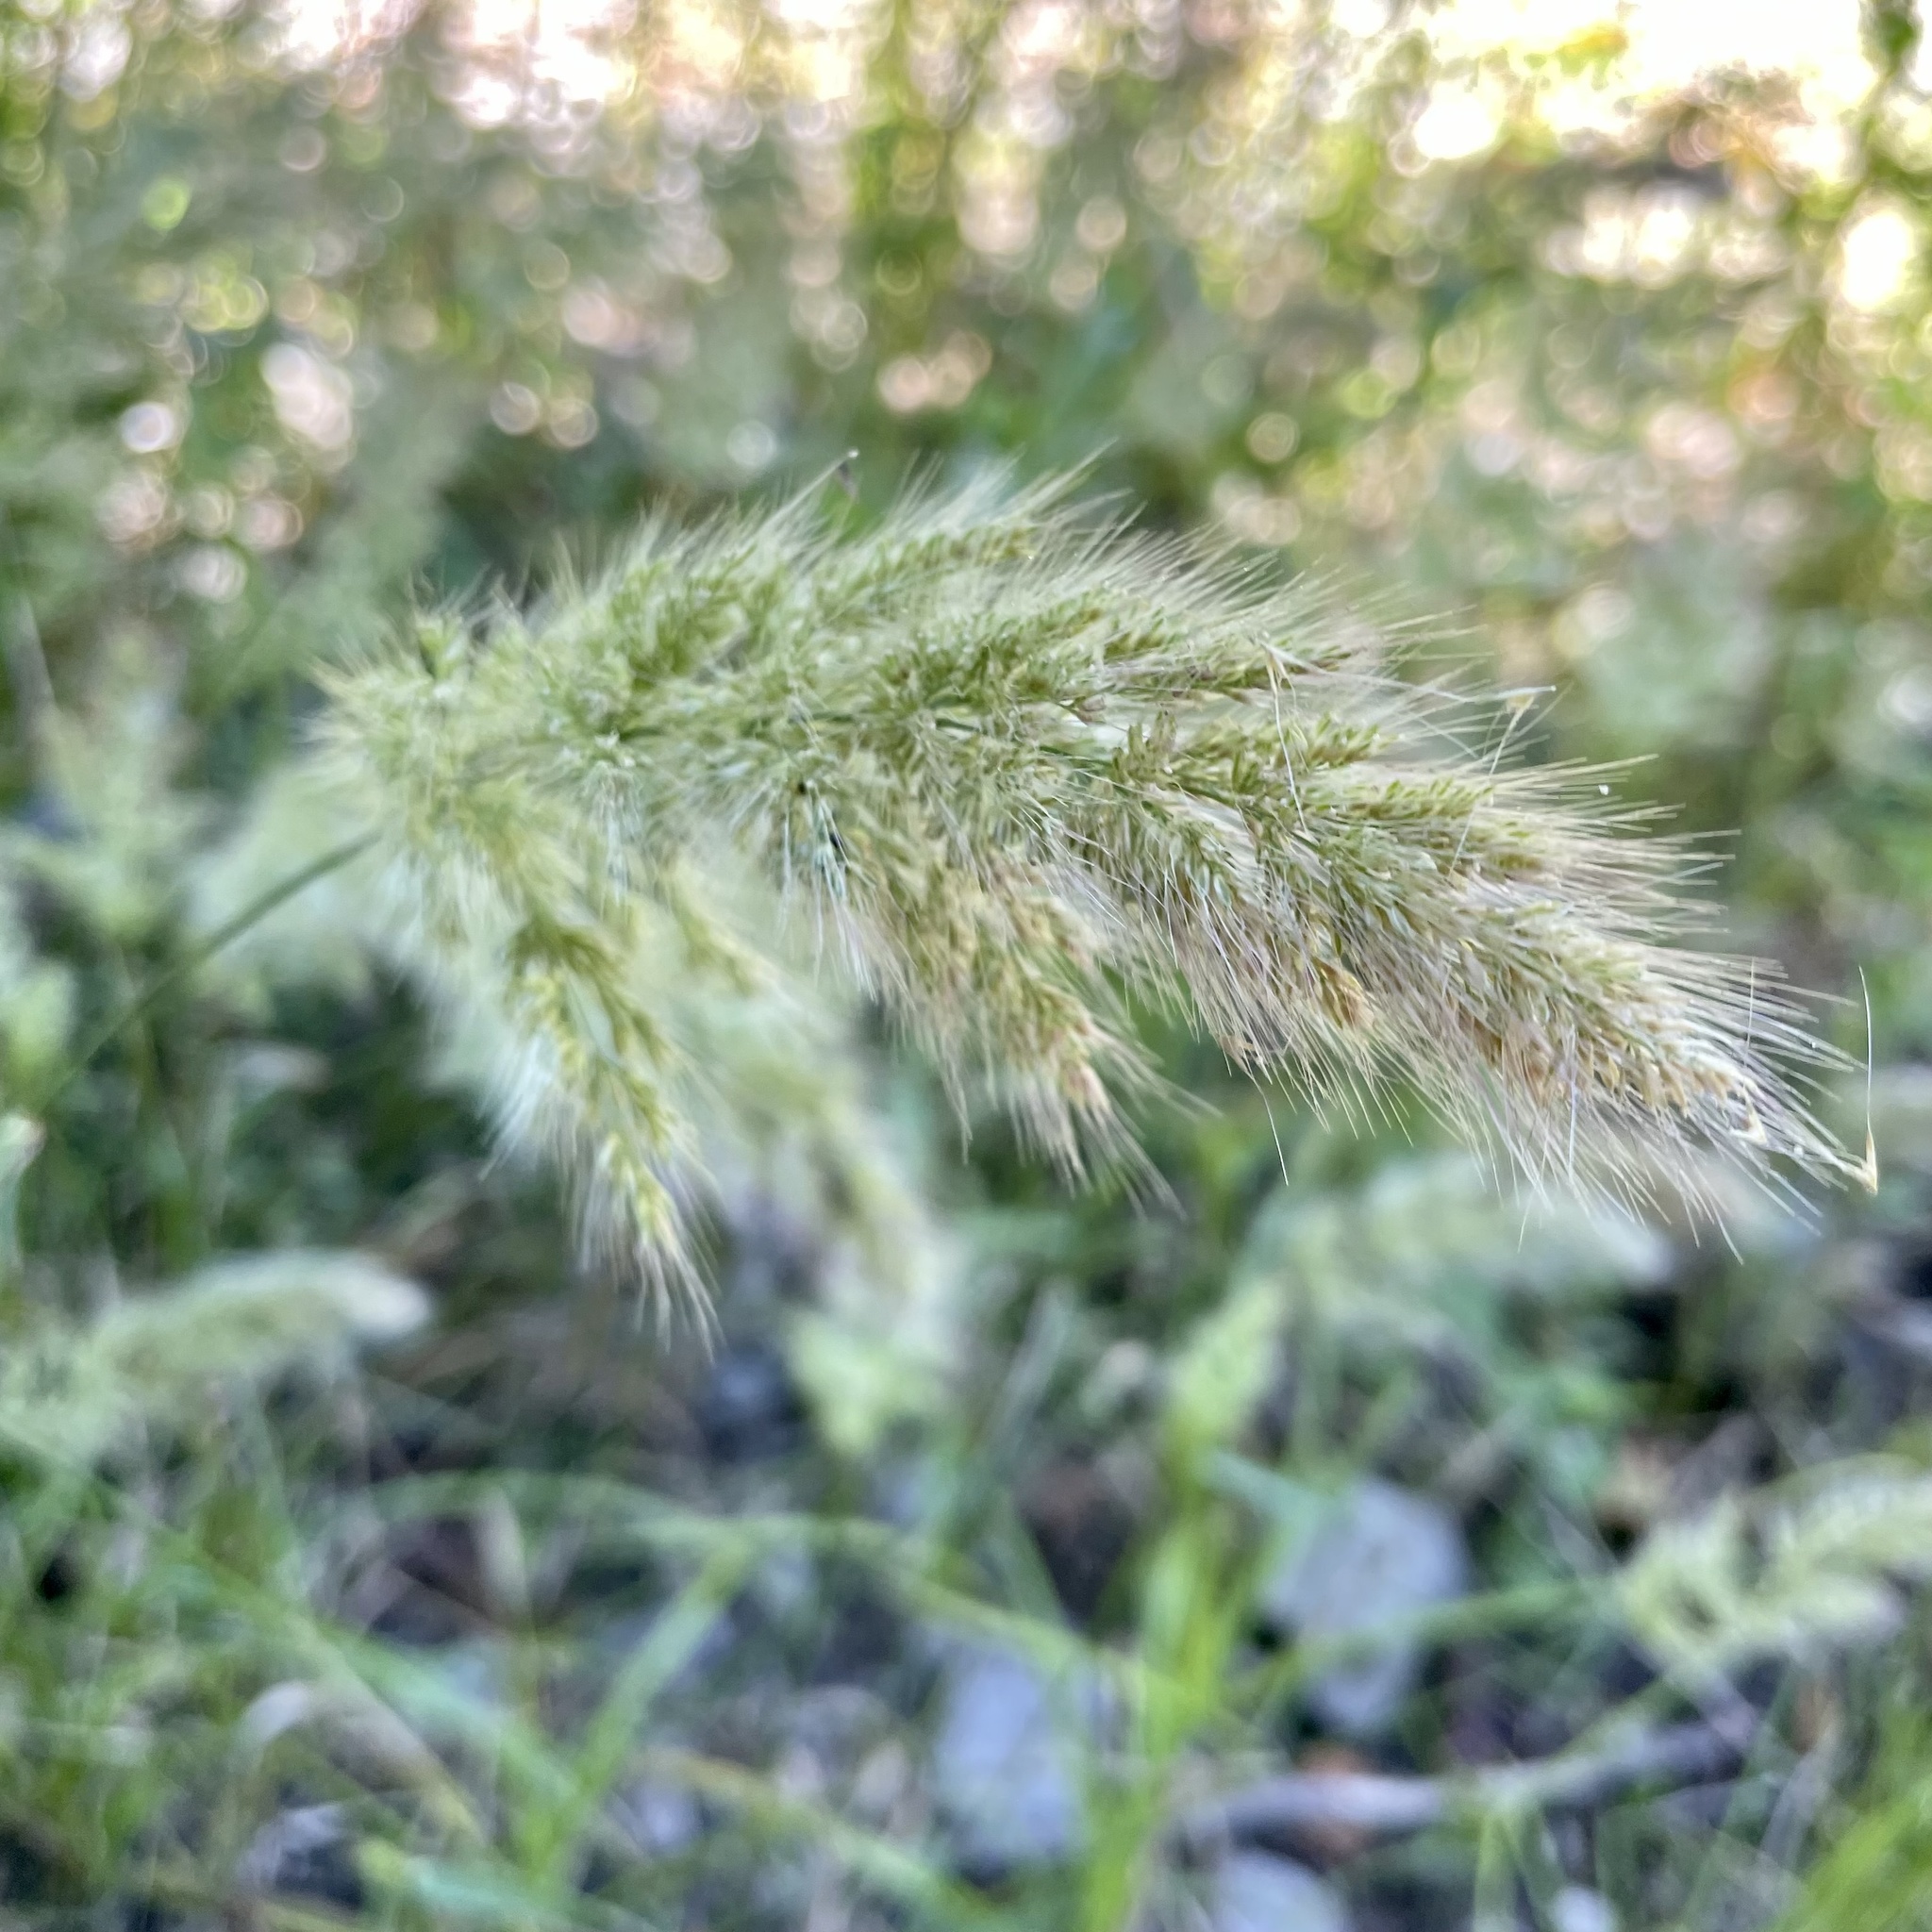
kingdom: Plantae
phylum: Tracheophyta
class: Liliopsida
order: Poales
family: Poaceae
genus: Polypogon
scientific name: Polypogon monspeliensis
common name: Annual rabbitsfoot grass
